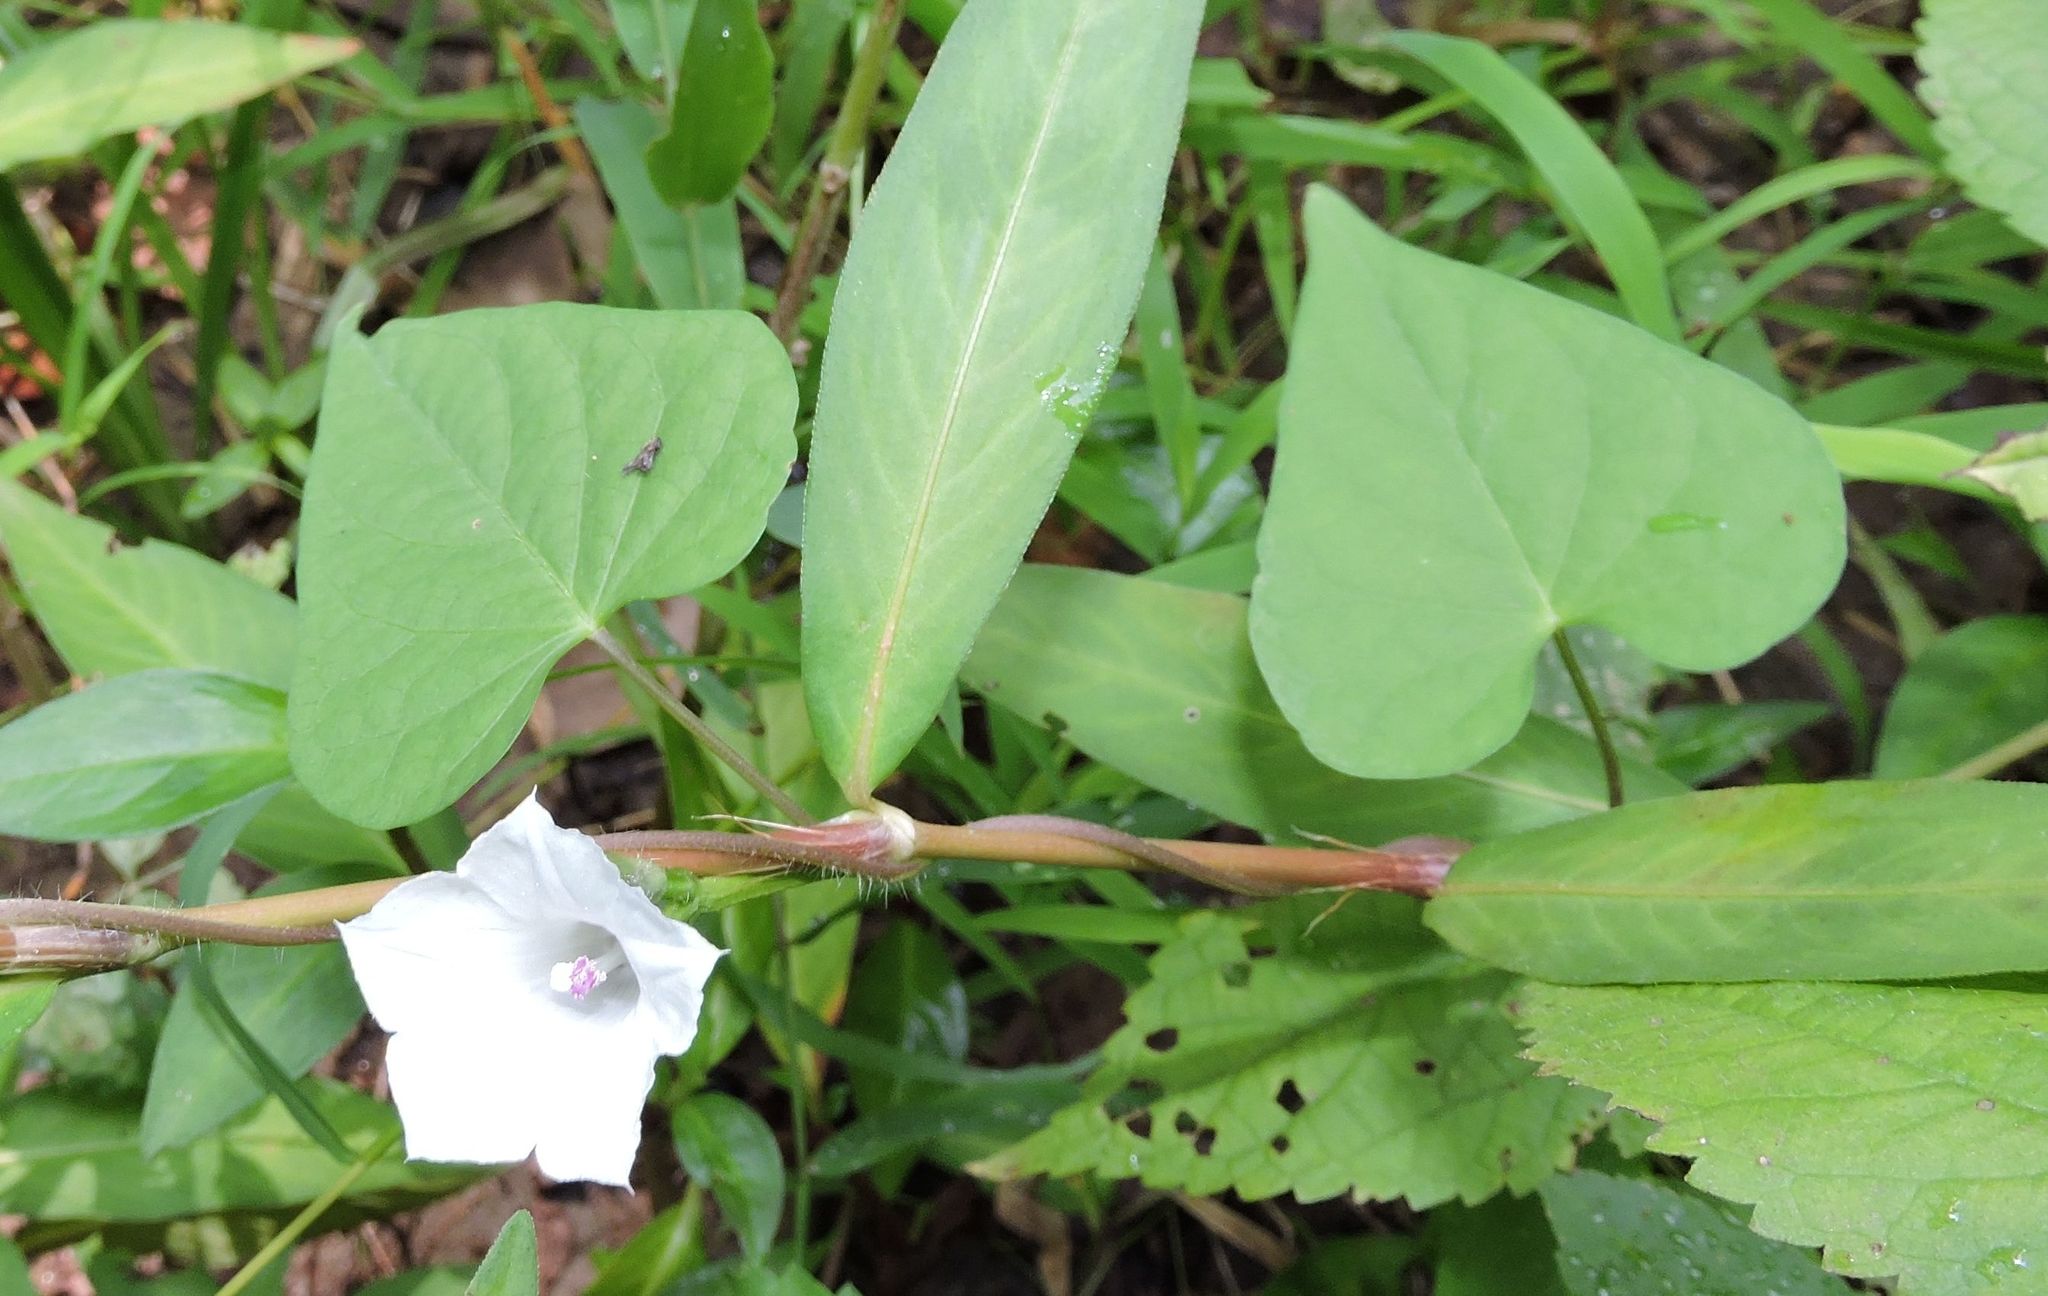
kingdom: Plantae
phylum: Tracheophyta
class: Magnoliopsida
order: Solanales
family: Convolvulaceae
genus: Ipomoea
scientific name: Ipomoea lacunosa
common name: White morning-glory
